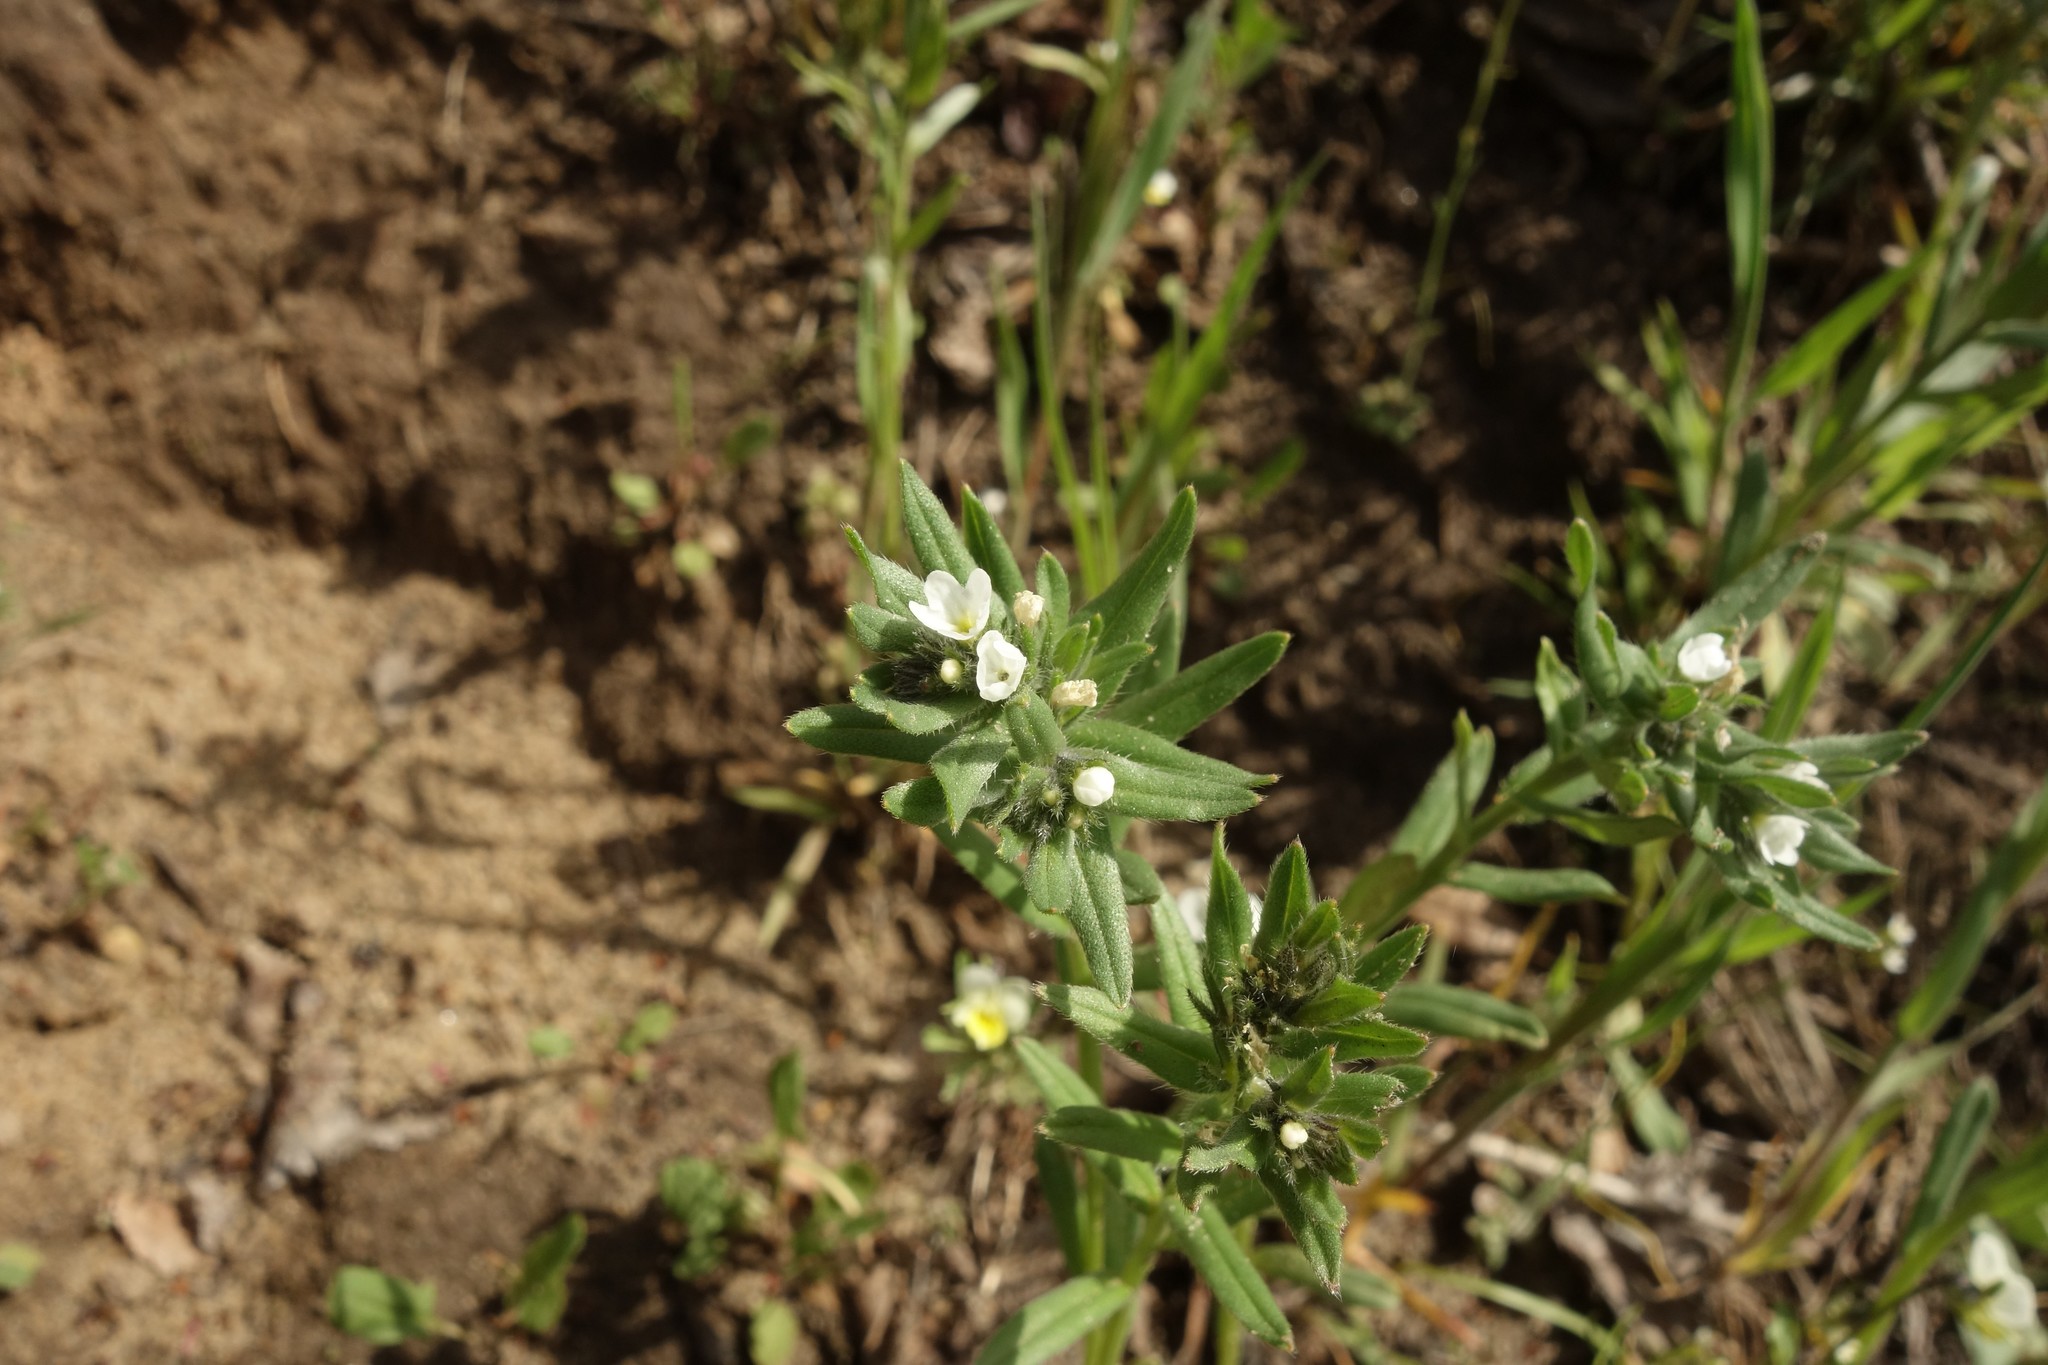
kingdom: Plantae
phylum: Tracheophyta
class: Magnoliopsida
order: Boraginales
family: Boraginaceae
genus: Buglossoides
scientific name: Buglossoides arvensis
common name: Corn gromwell
